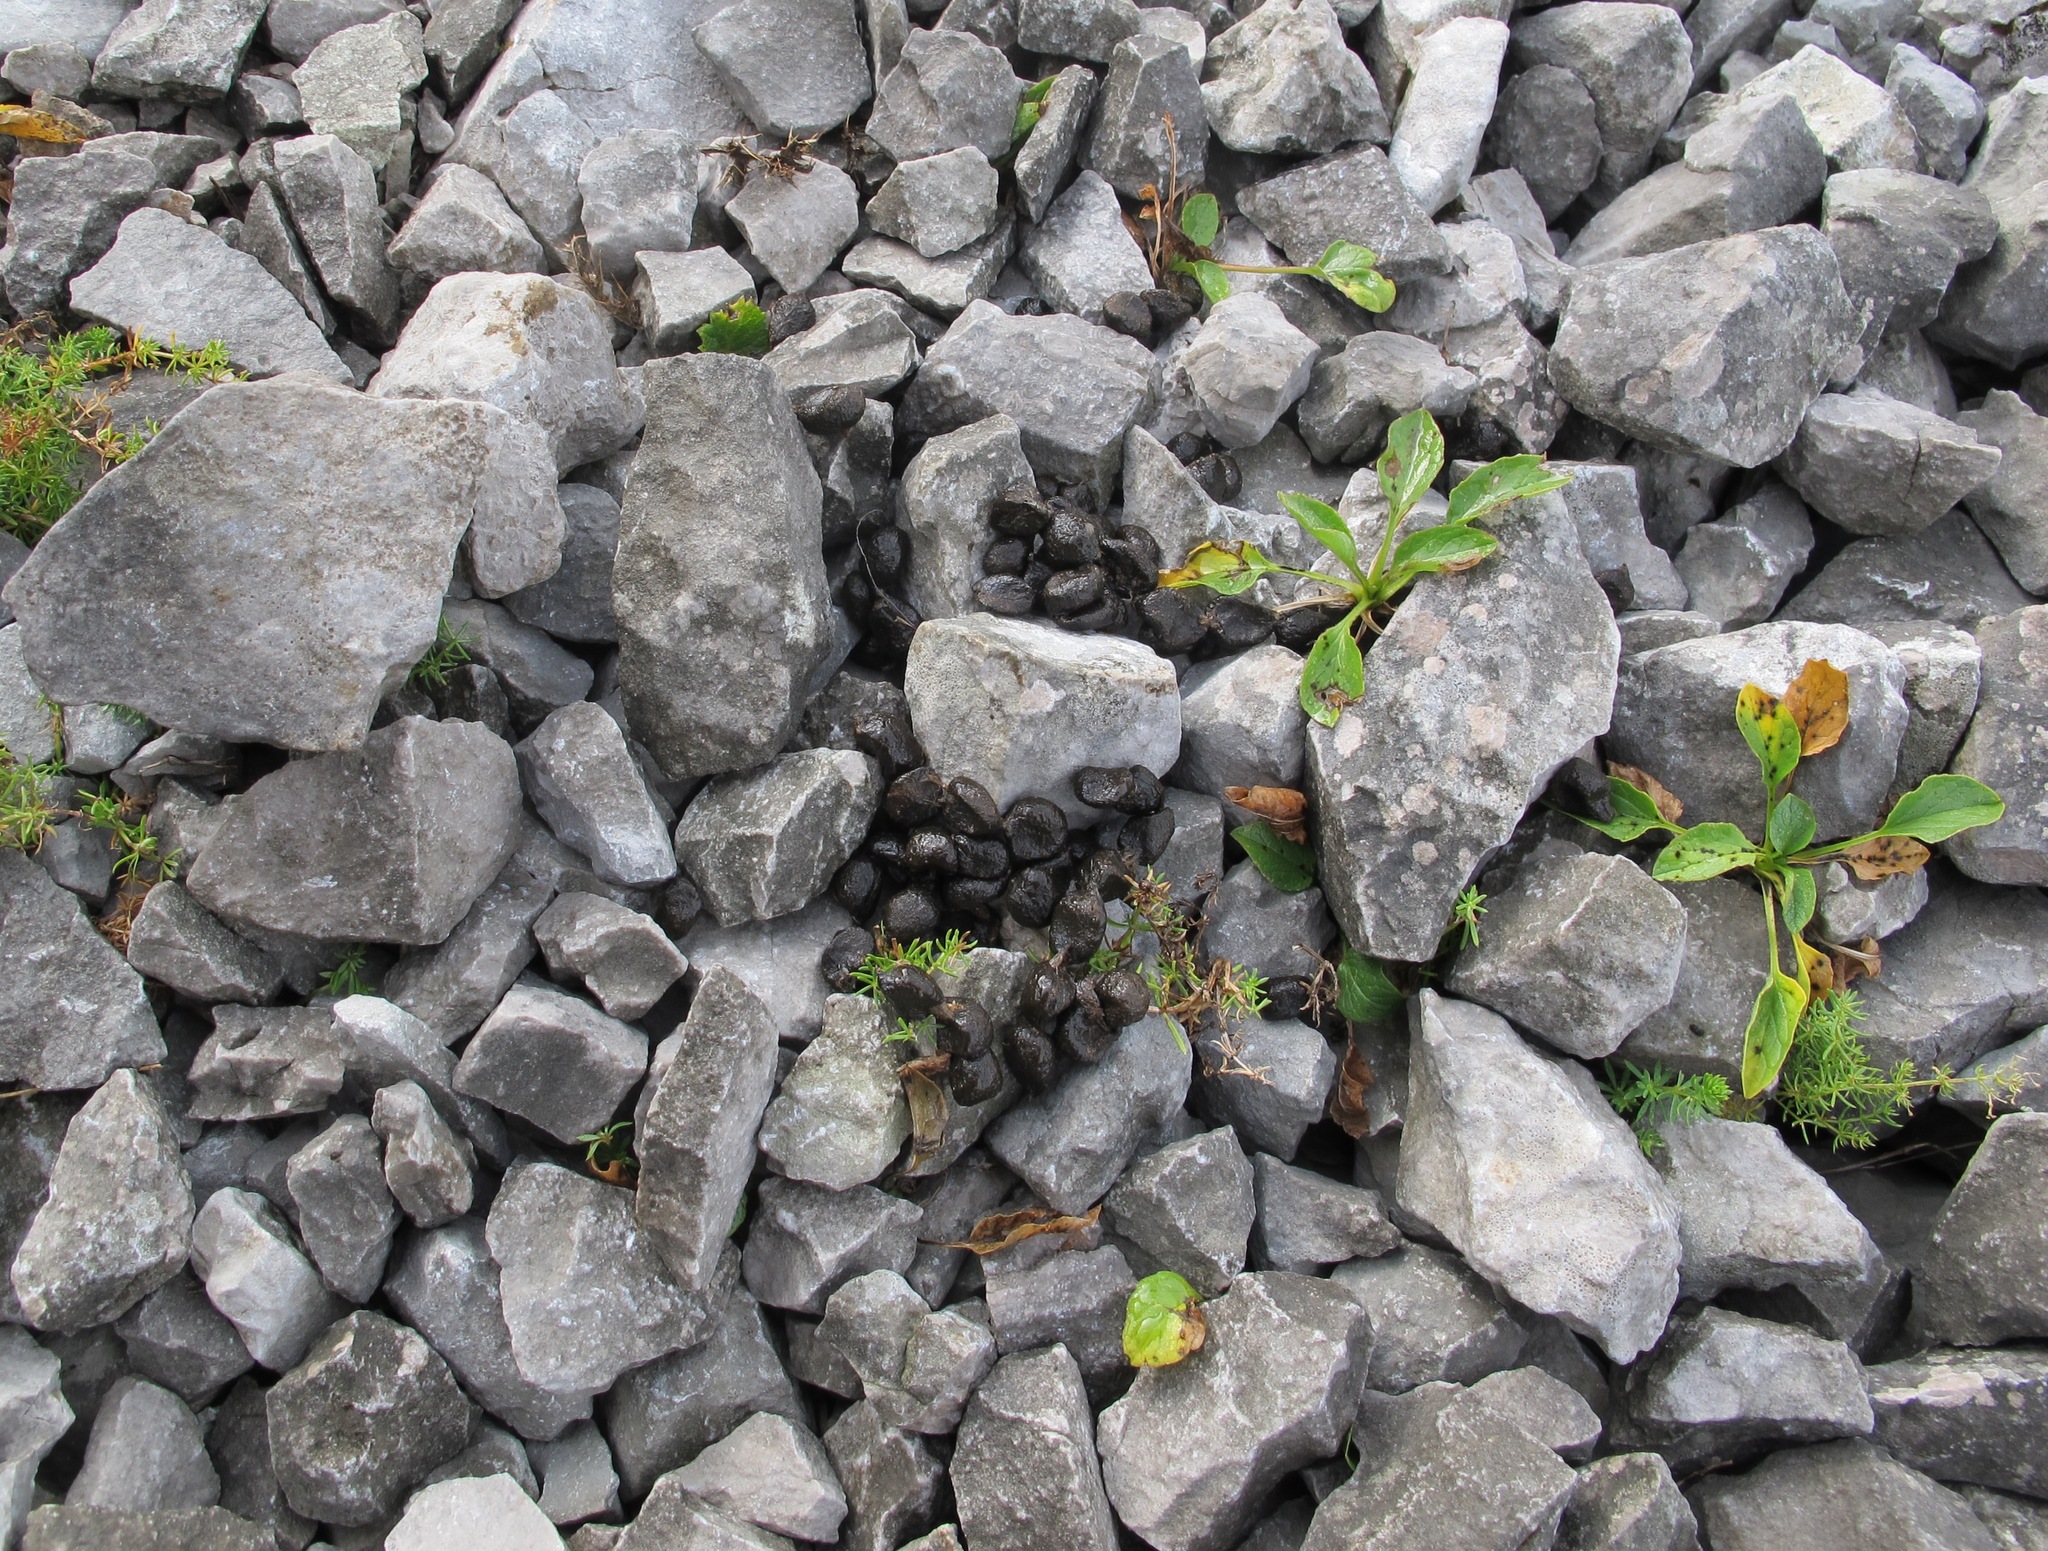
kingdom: Animalia
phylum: Chordata
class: Mammalia
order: Artiodactyla
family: Bovidae
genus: Rupicapra
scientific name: Rupicapra rupicapra
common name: Chamois
